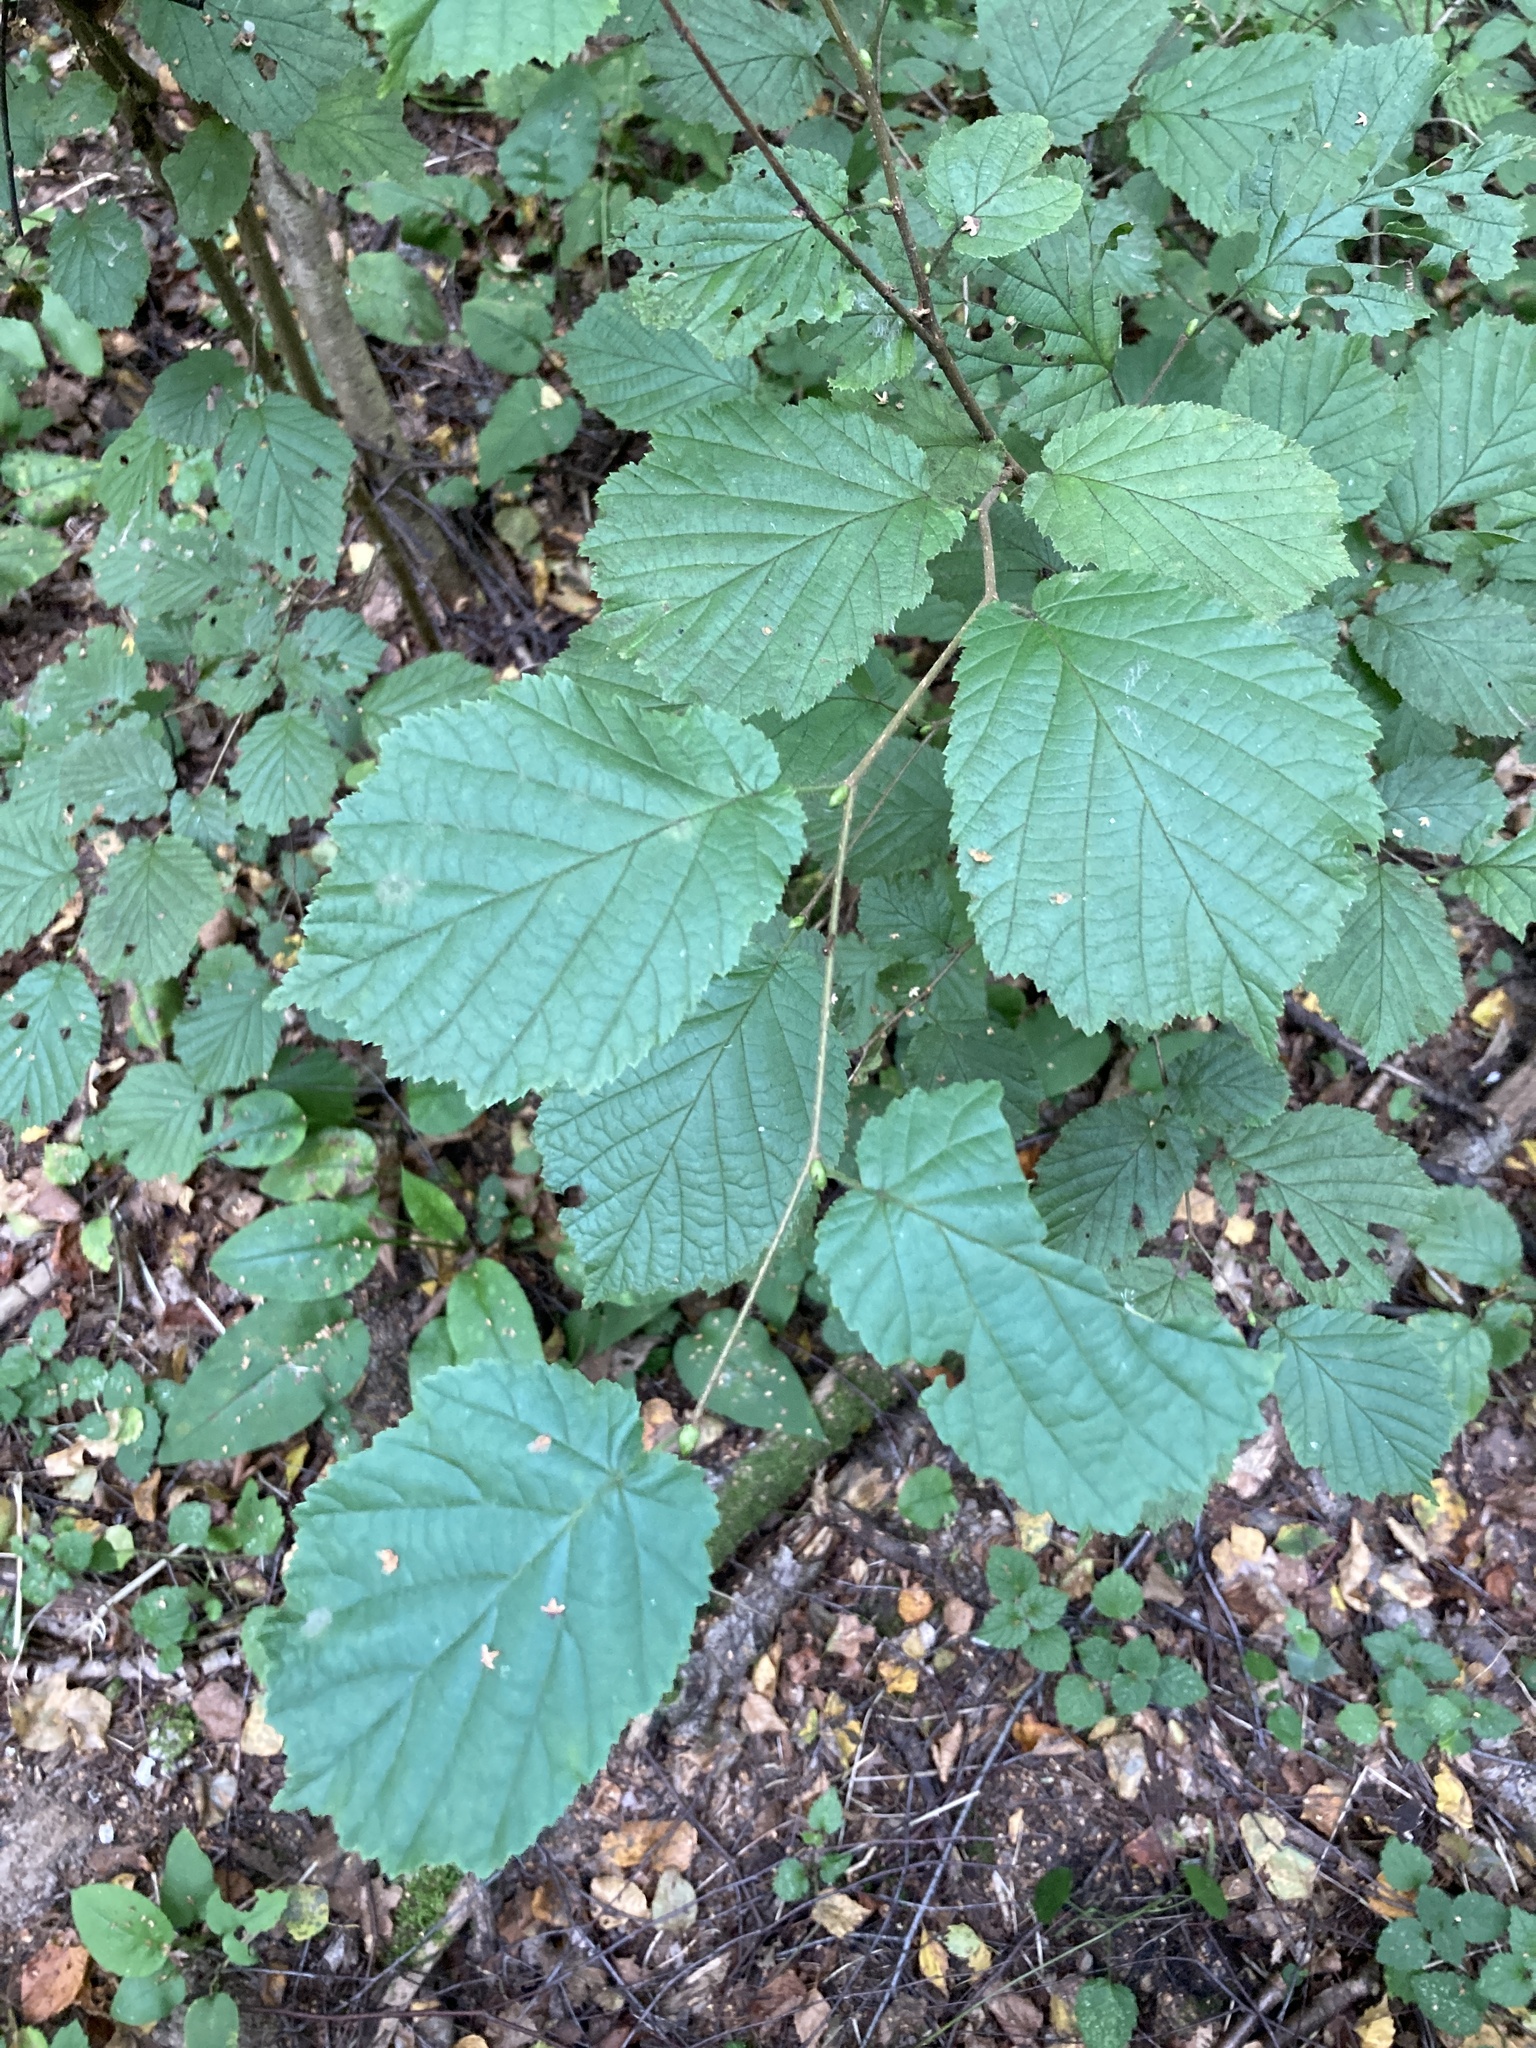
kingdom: Plantae
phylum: Tracheophyta
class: Magnoliopsida
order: Fagales
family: Betulaceae
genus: Corylus
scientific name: Corylus avellana
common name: European hazel
